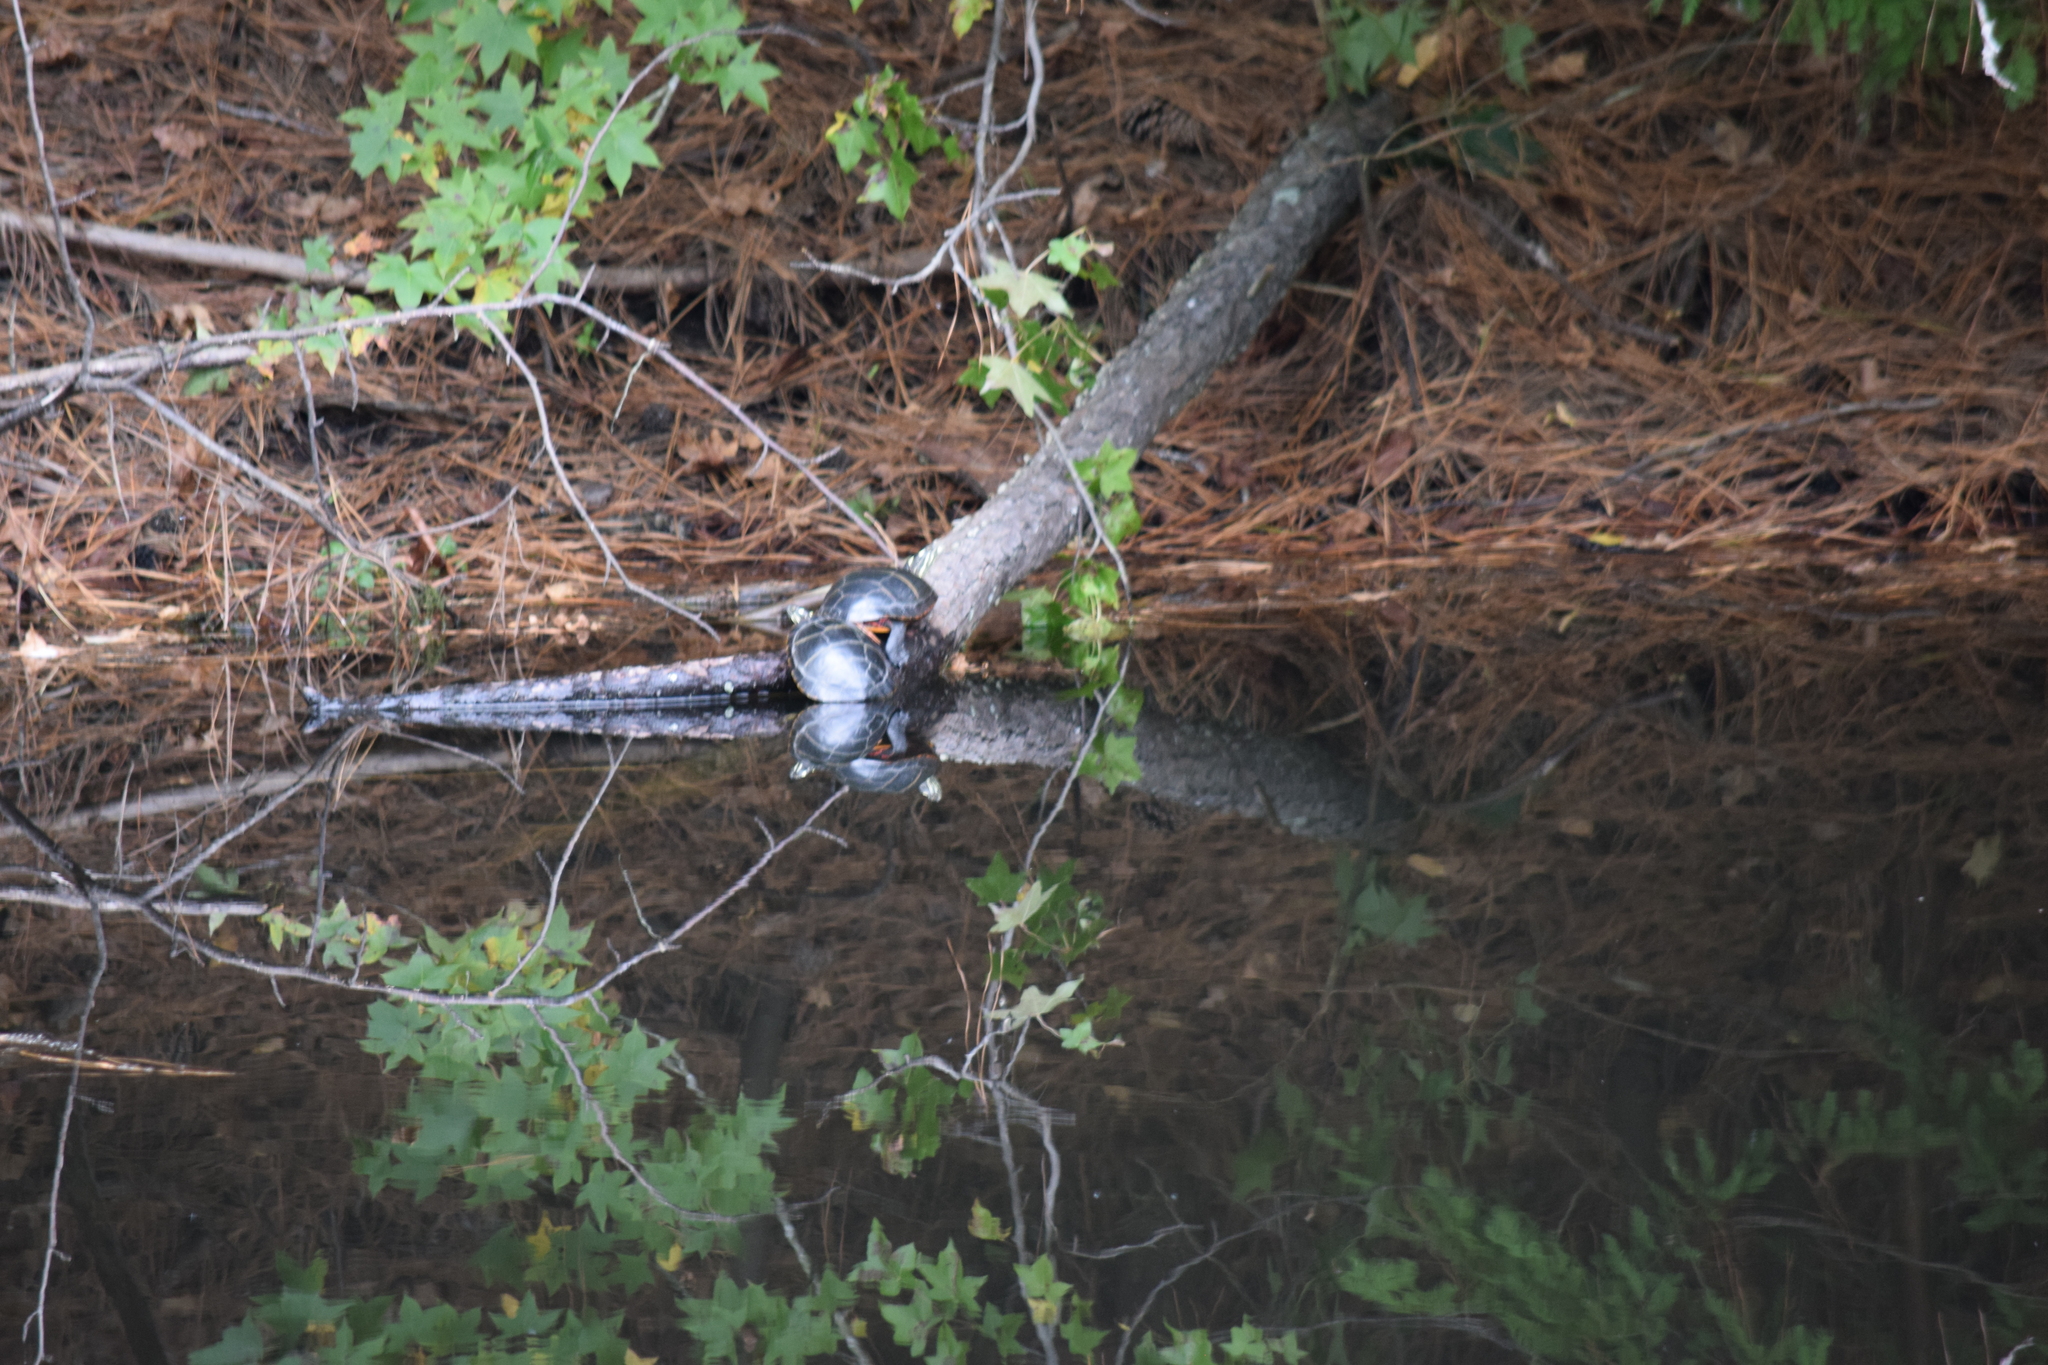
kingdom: Animalia
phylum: Chordata
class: Testudines
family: Emydidae
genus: Chrysemys
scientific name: Chrysemys picta
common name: Painted turtle
